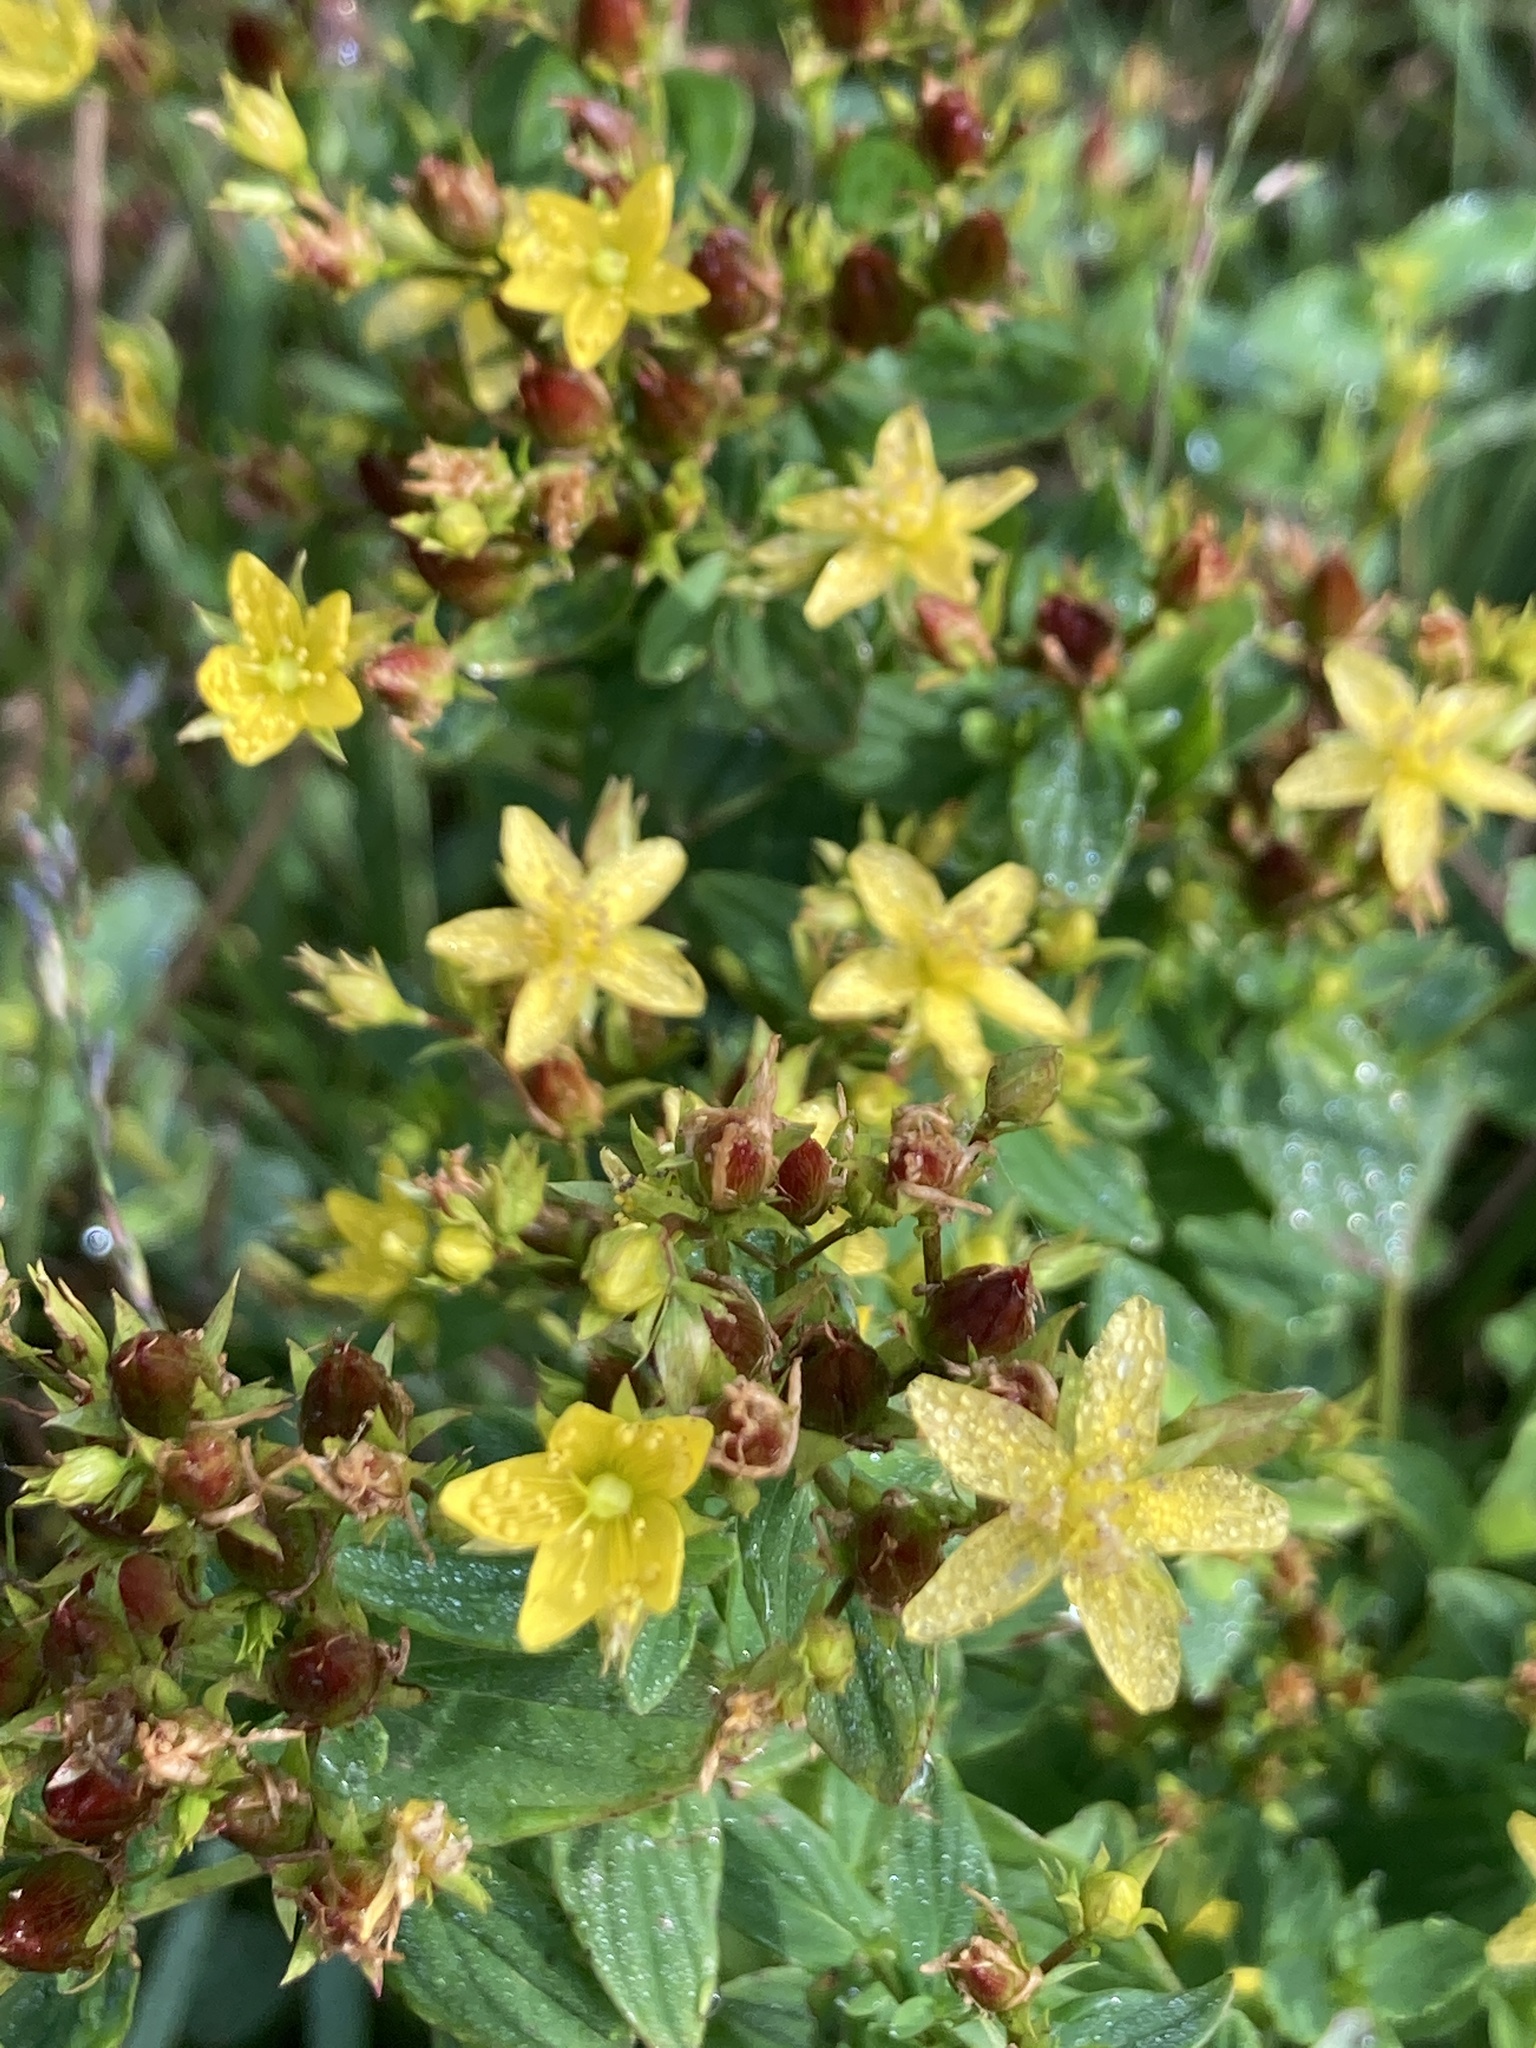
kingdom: Plantae
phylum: Tracheophyta
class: Magnoliopsida
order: Malpighiales
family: Hypericaceae
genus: Hypericum
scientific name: Hypericum tetrapterum
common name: Square-stalked st. john's-wort
